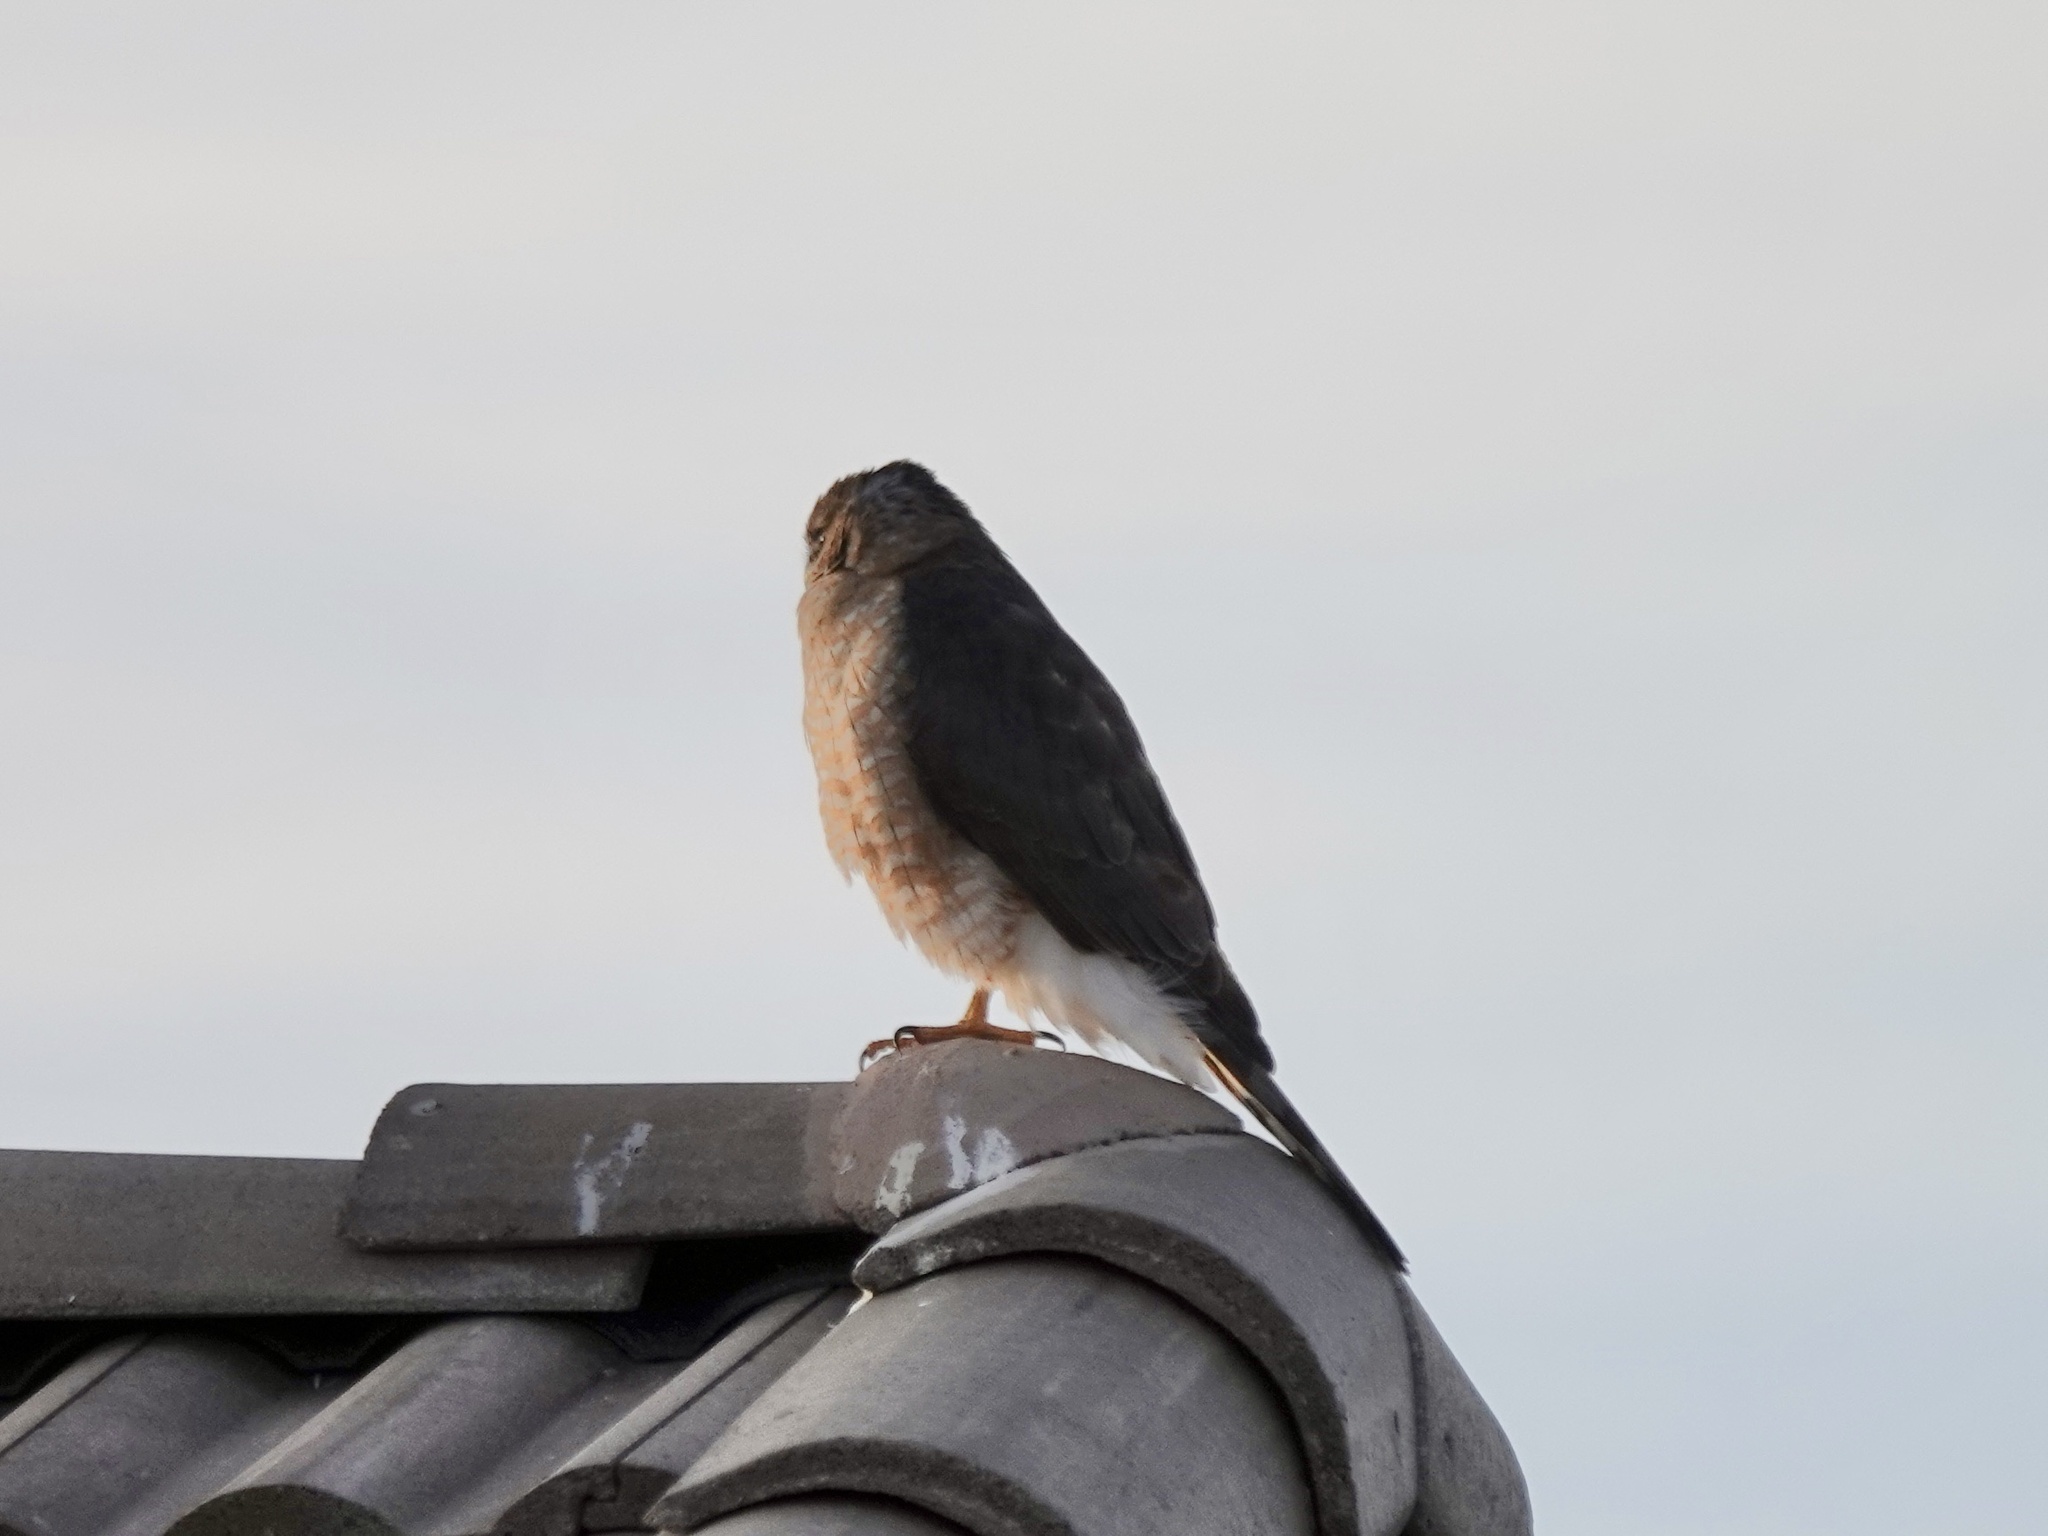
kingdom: Animalia
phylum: Chordata
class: Aves
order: Accipitriformes
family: Accipitridae
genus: Accipiter
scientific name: Accipiter cooperii
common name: Cooper's hawk
